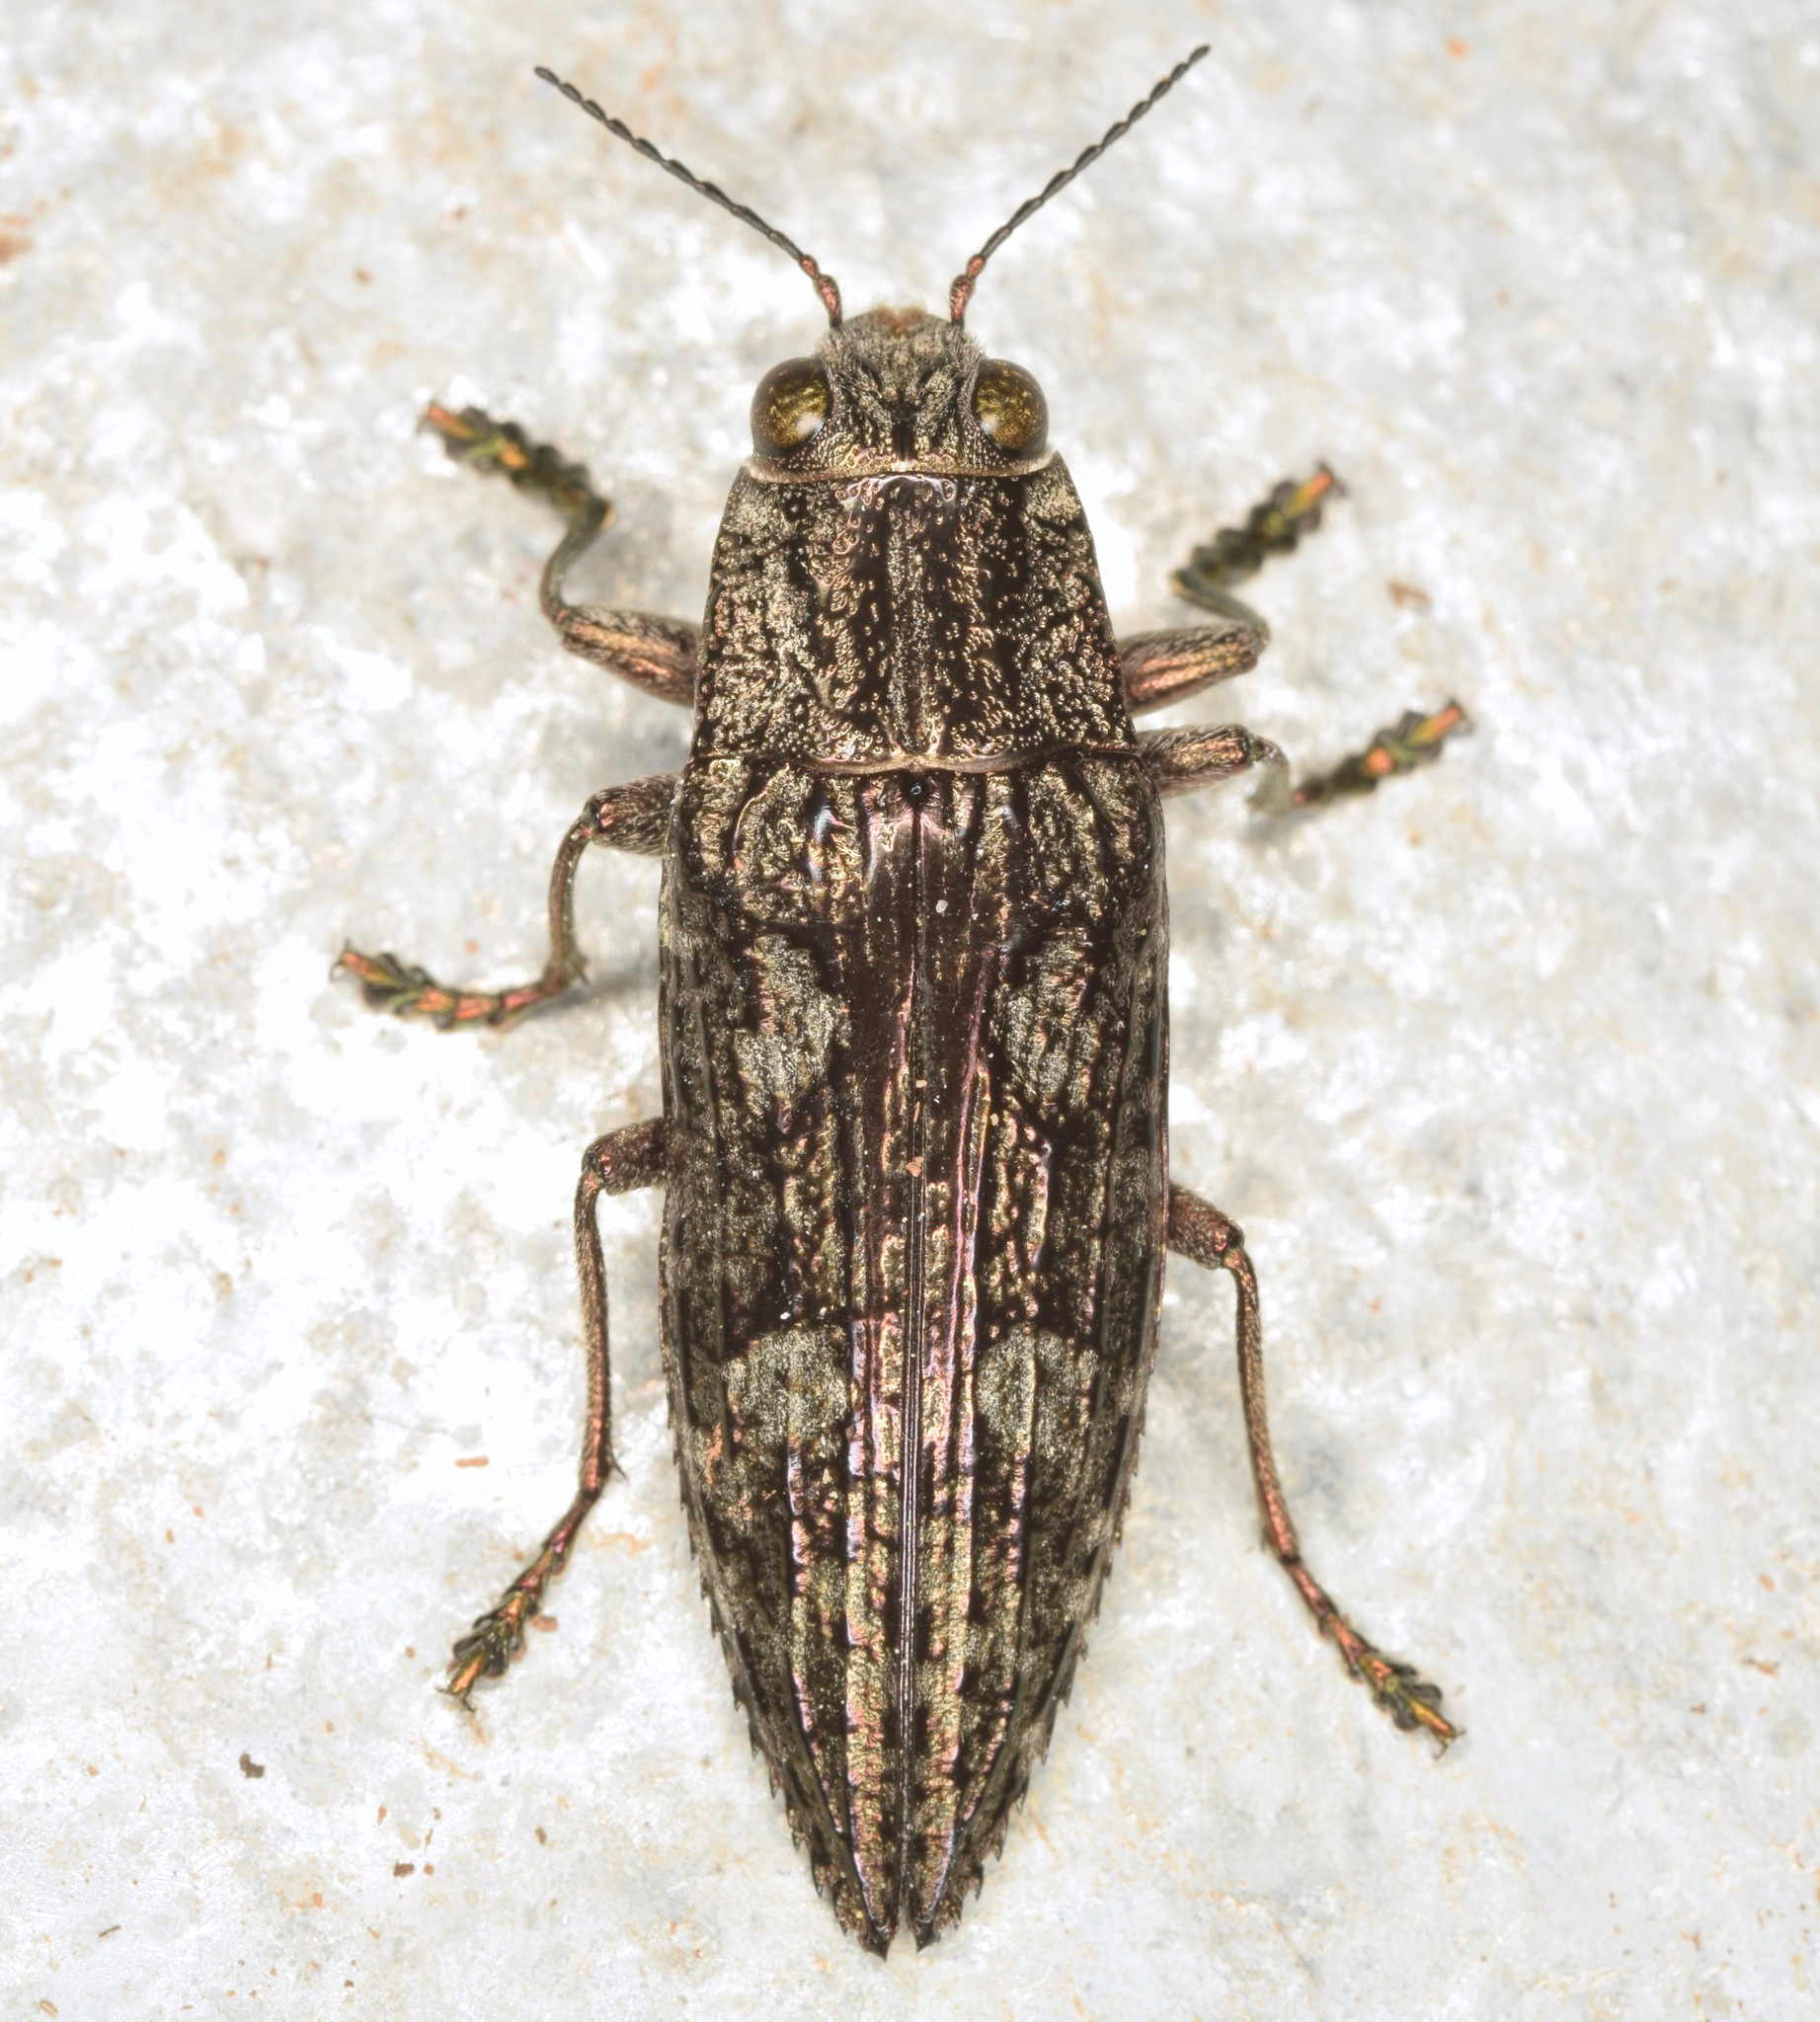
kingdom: Animalia
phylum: Arthropoda
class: Insecta
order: Coleoptera
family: Buprestidae
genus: Texania
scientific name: Texania campestris
